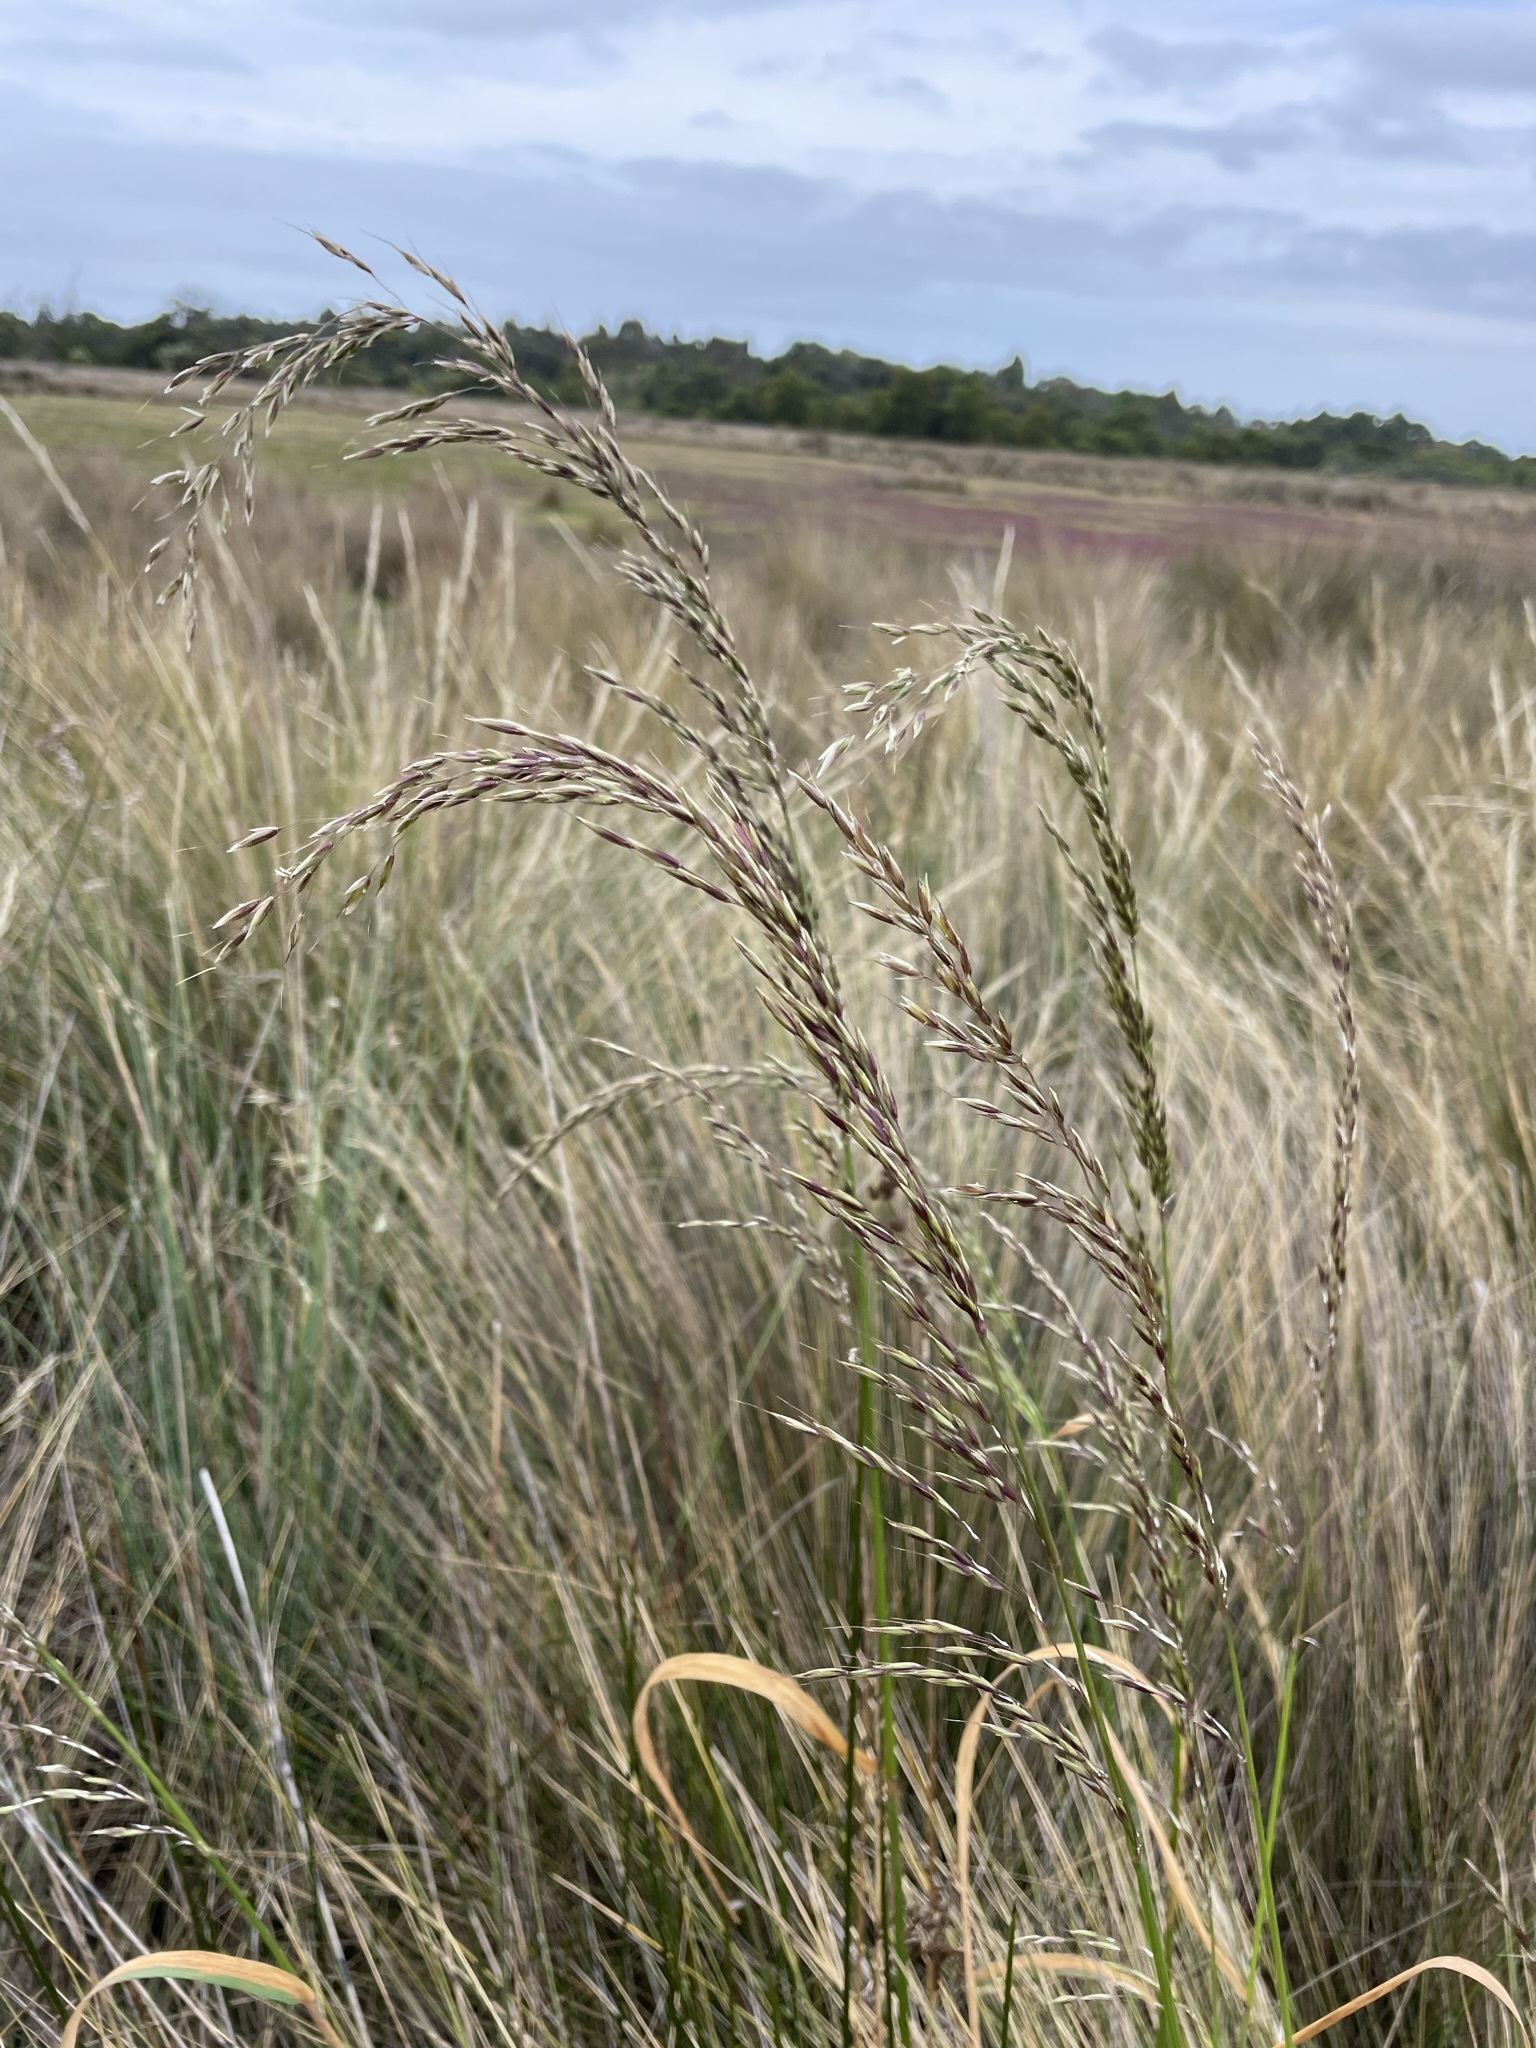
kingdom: Plantae
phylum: Tracheophyta
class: Liliopsida
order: Poales
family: Poaceae
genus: Arrhenatherum
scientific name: Arrhenatherum elatius
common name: Tall oatgrass
